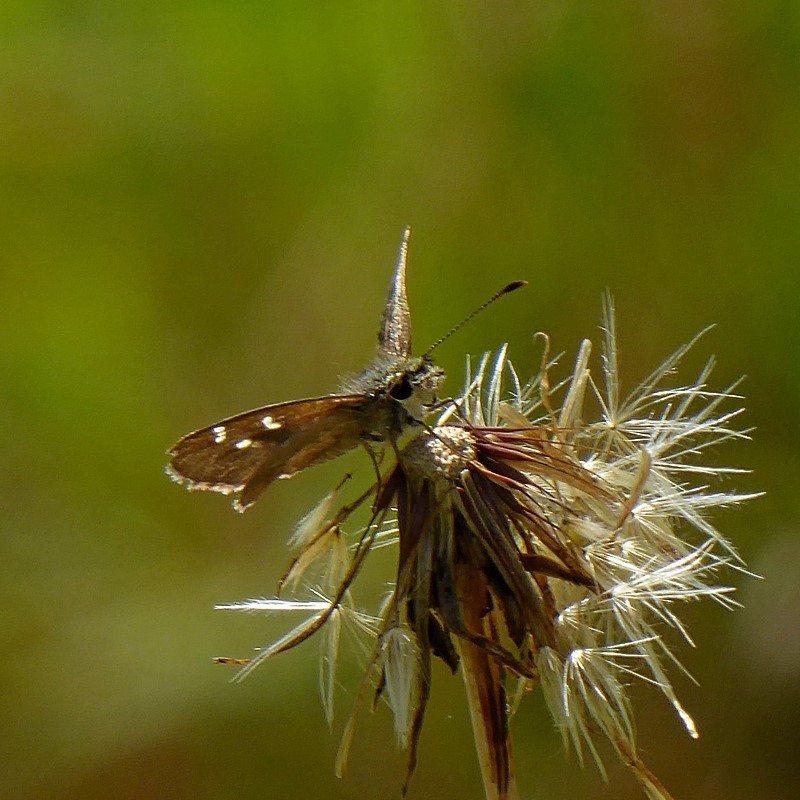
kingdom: Animalia
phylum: Arthropoda
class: Insecta
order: Lepidoptera
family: Hesperiidae
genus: Toxidia
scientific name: Toxidia parvulus
